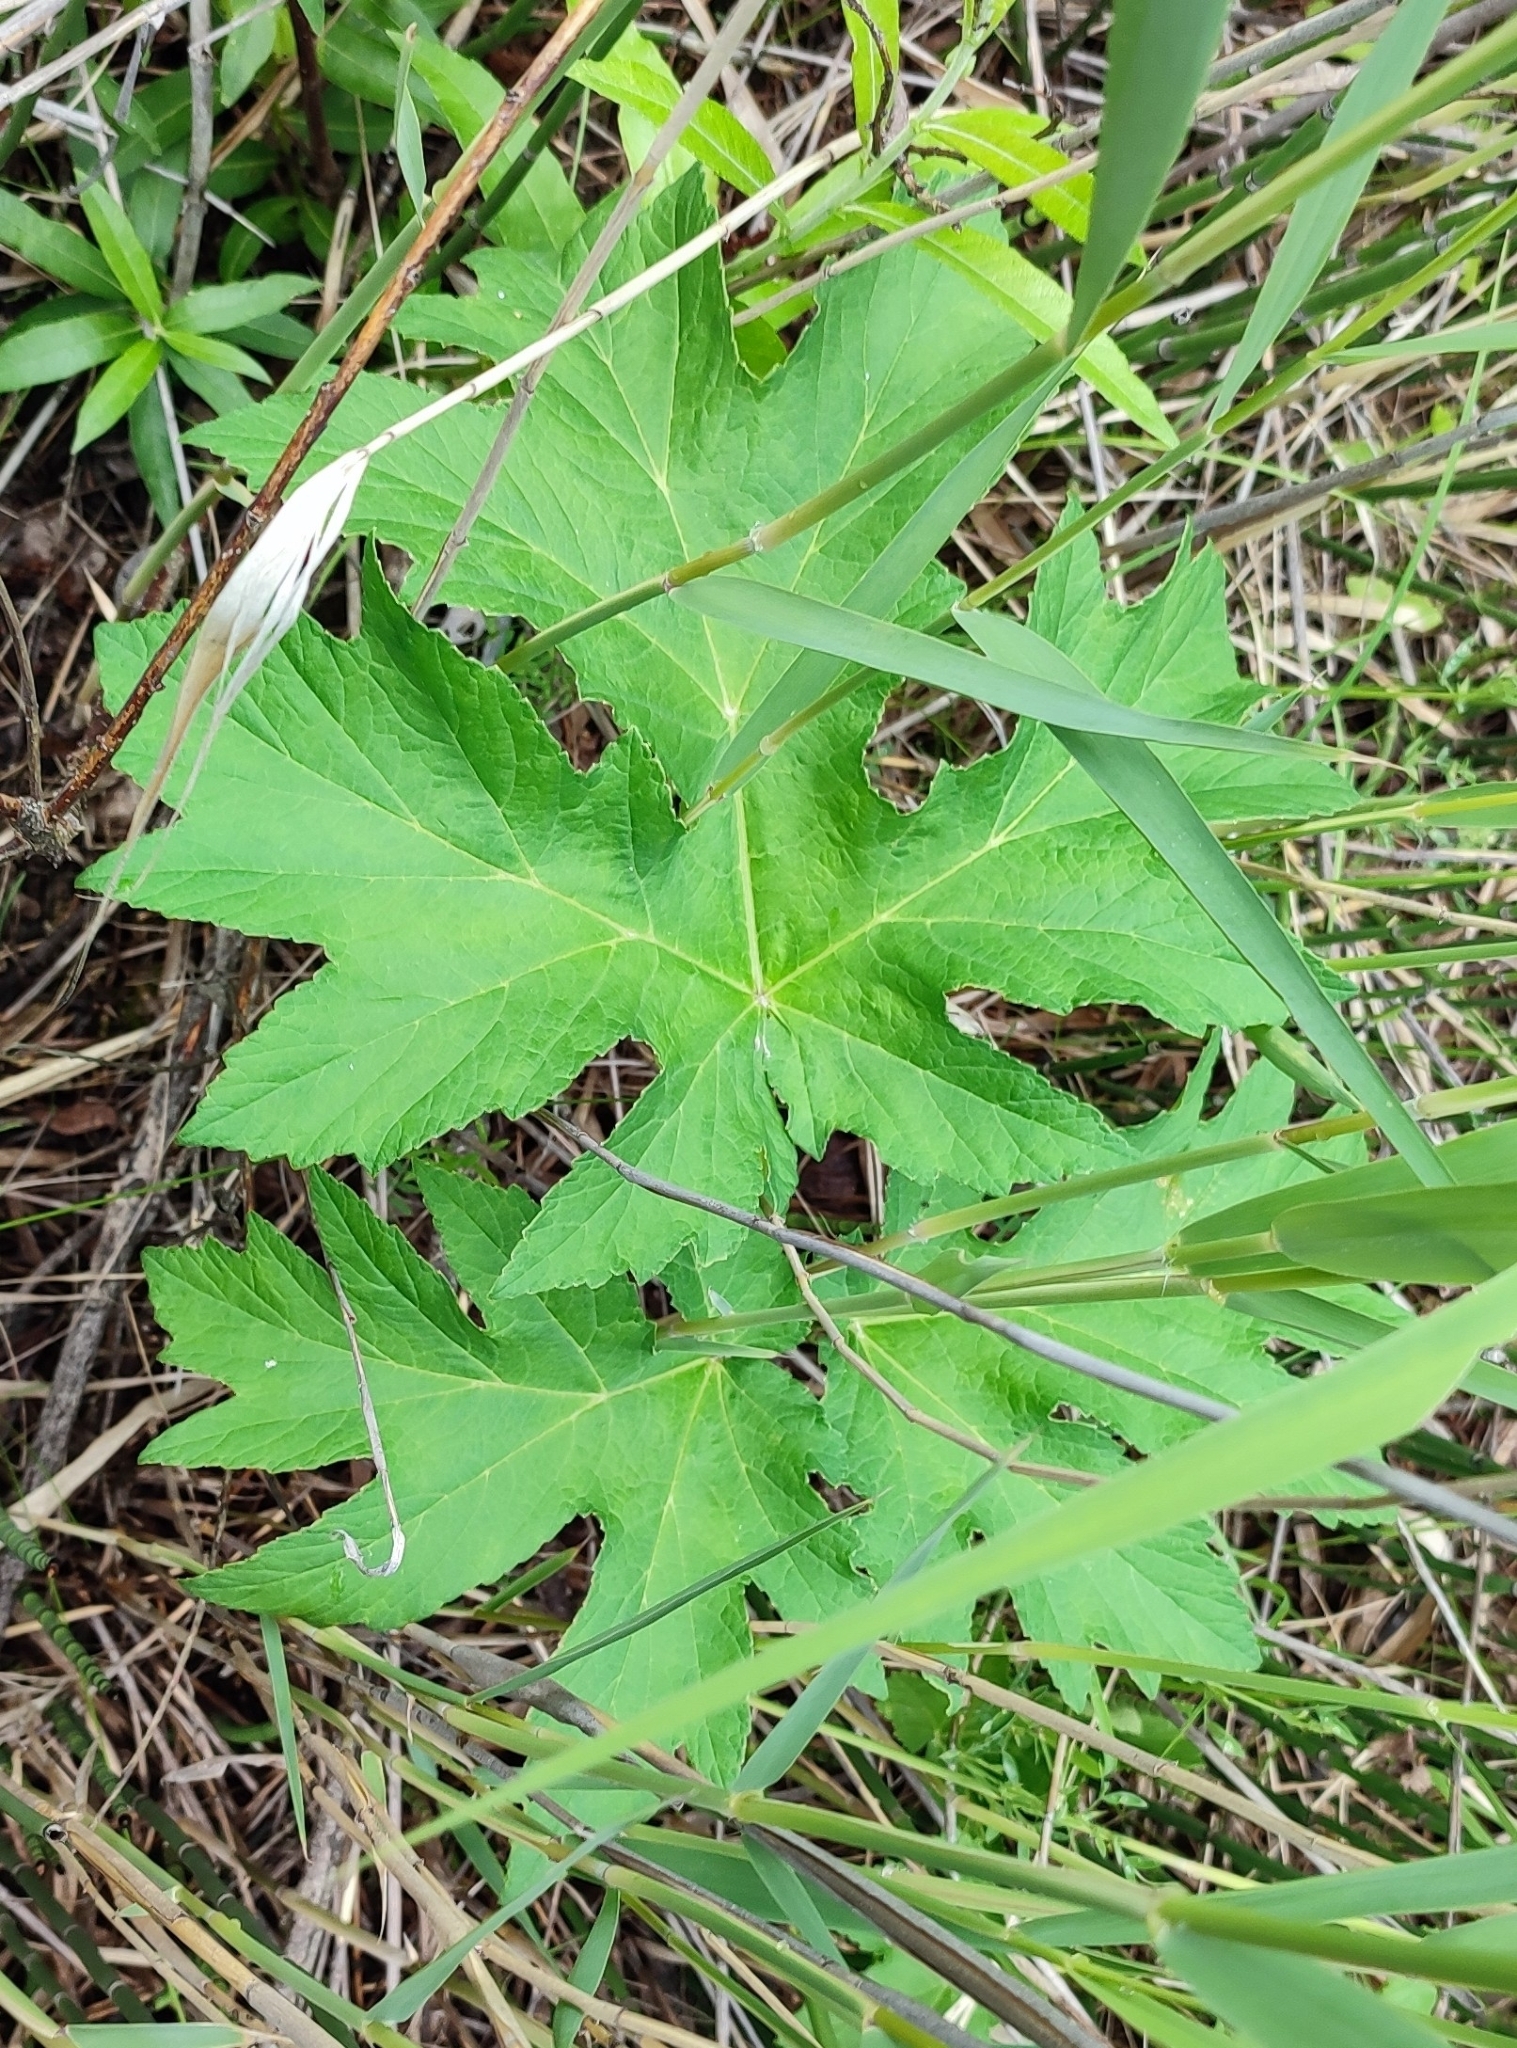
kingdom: Plantae
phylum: Tracheophyta
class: Magnoliopsida
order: Apiales
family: Apiaceae
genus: Heracleum
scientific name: Heracleum sphondylium
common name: Hogweed
